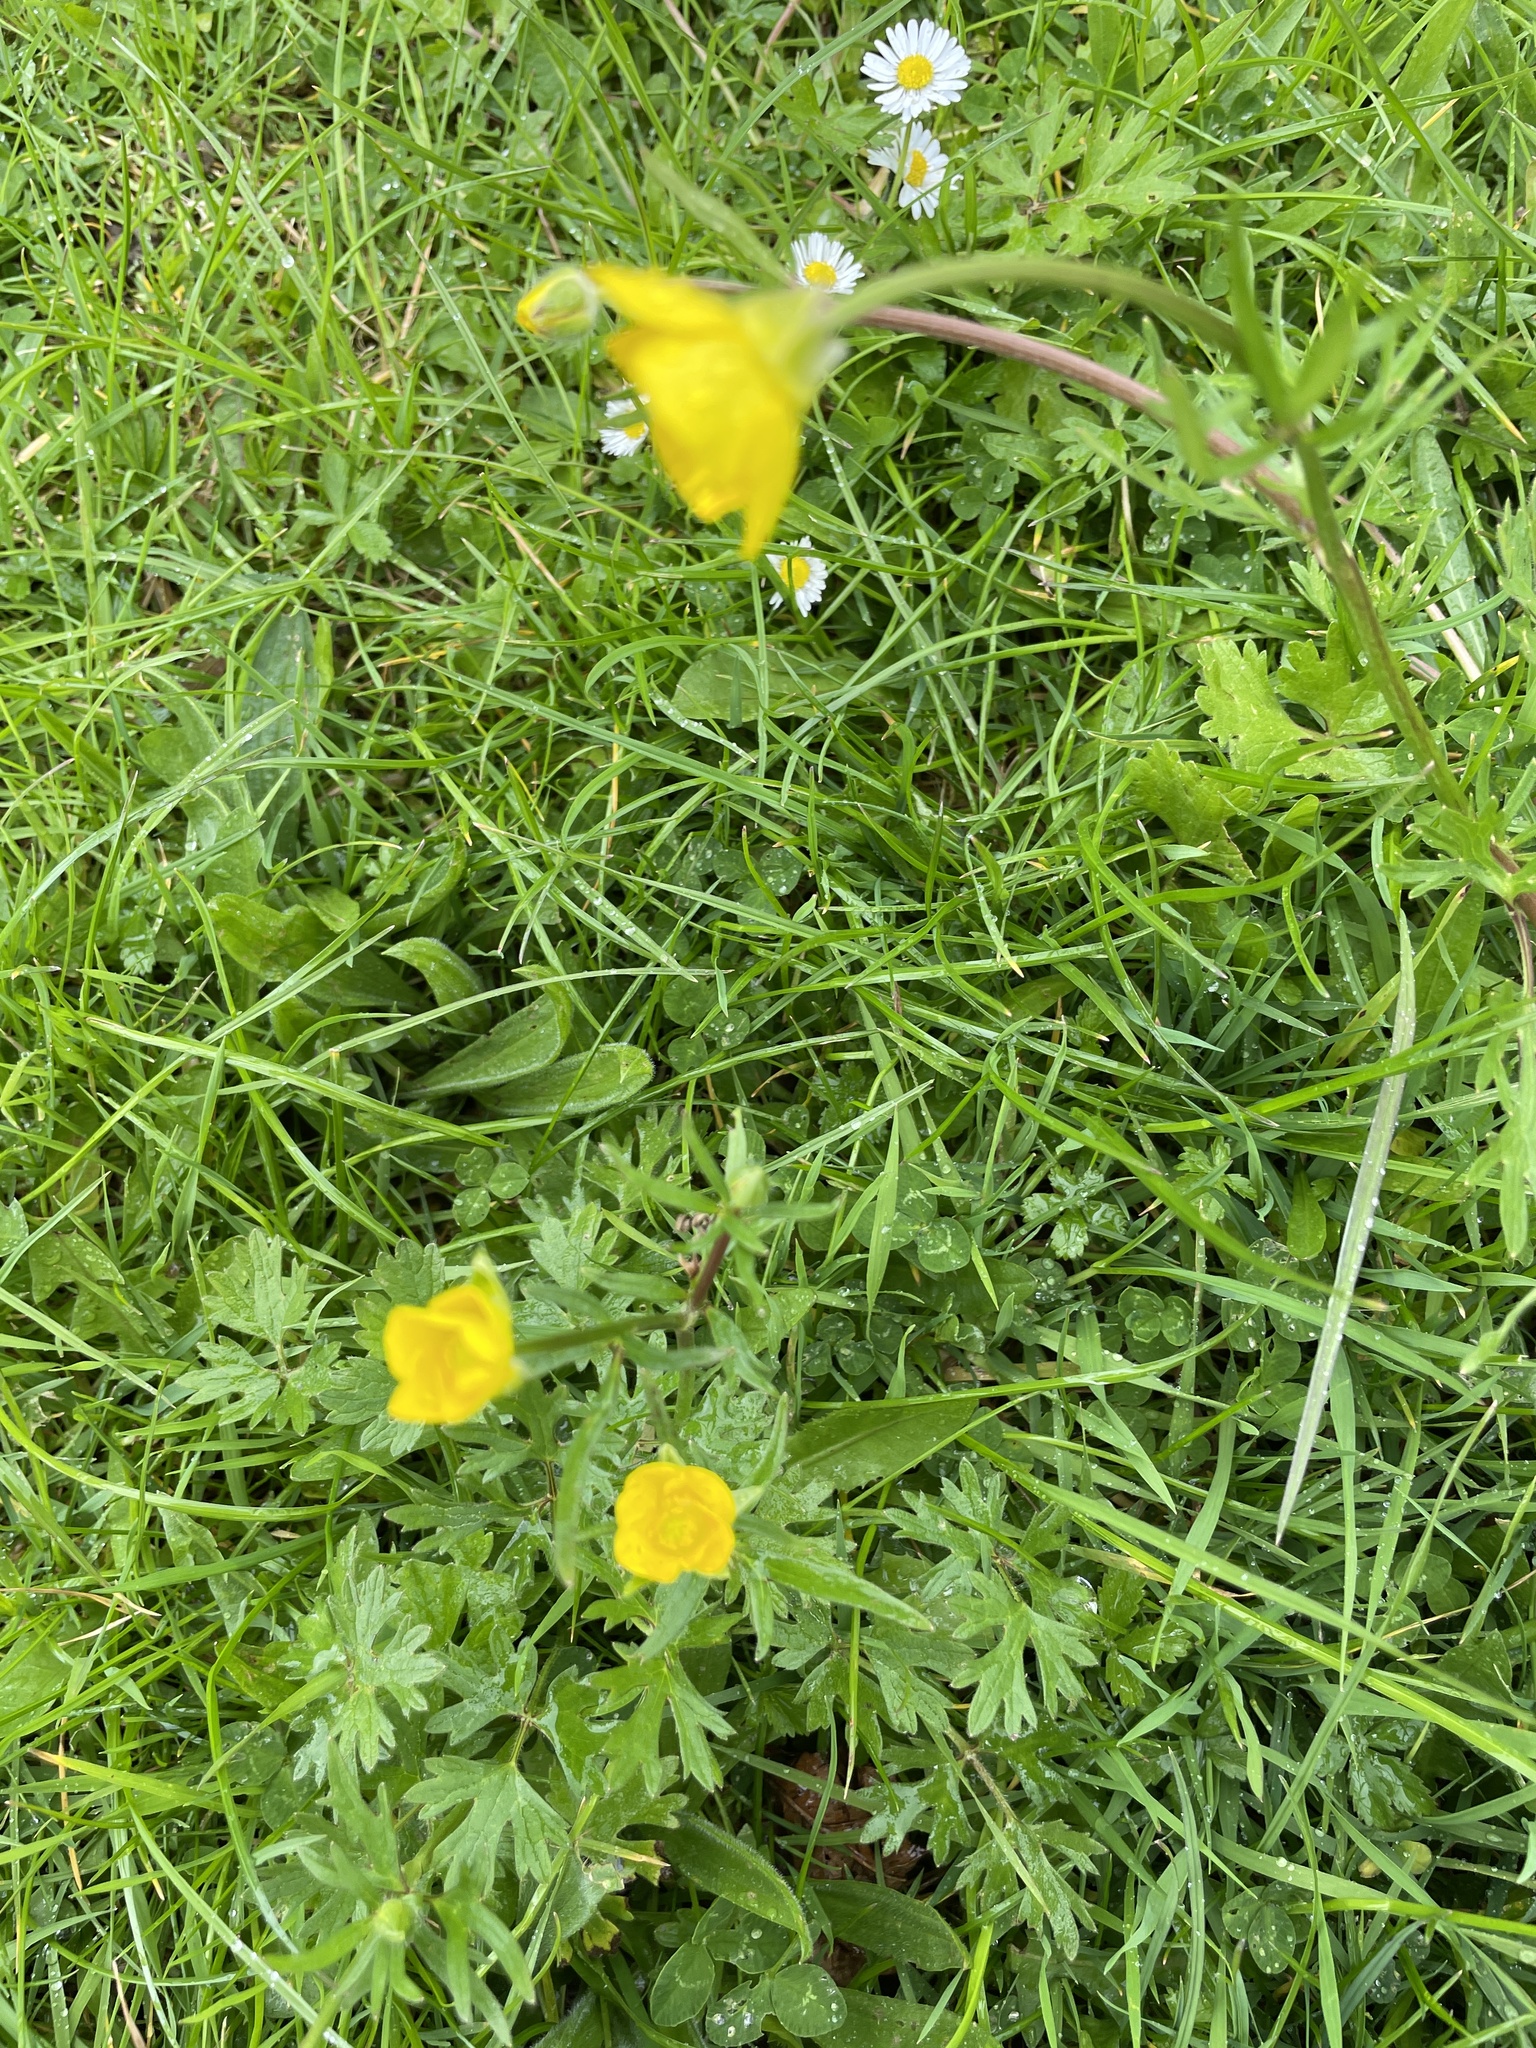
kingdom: Plantae
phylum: Tracheophyta
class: Magnoliopsida
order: Ranunculales
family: Ranunculaceae
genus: Ranunculus
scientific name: Ranunculus bulbosus
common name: Bulbous buttercup
